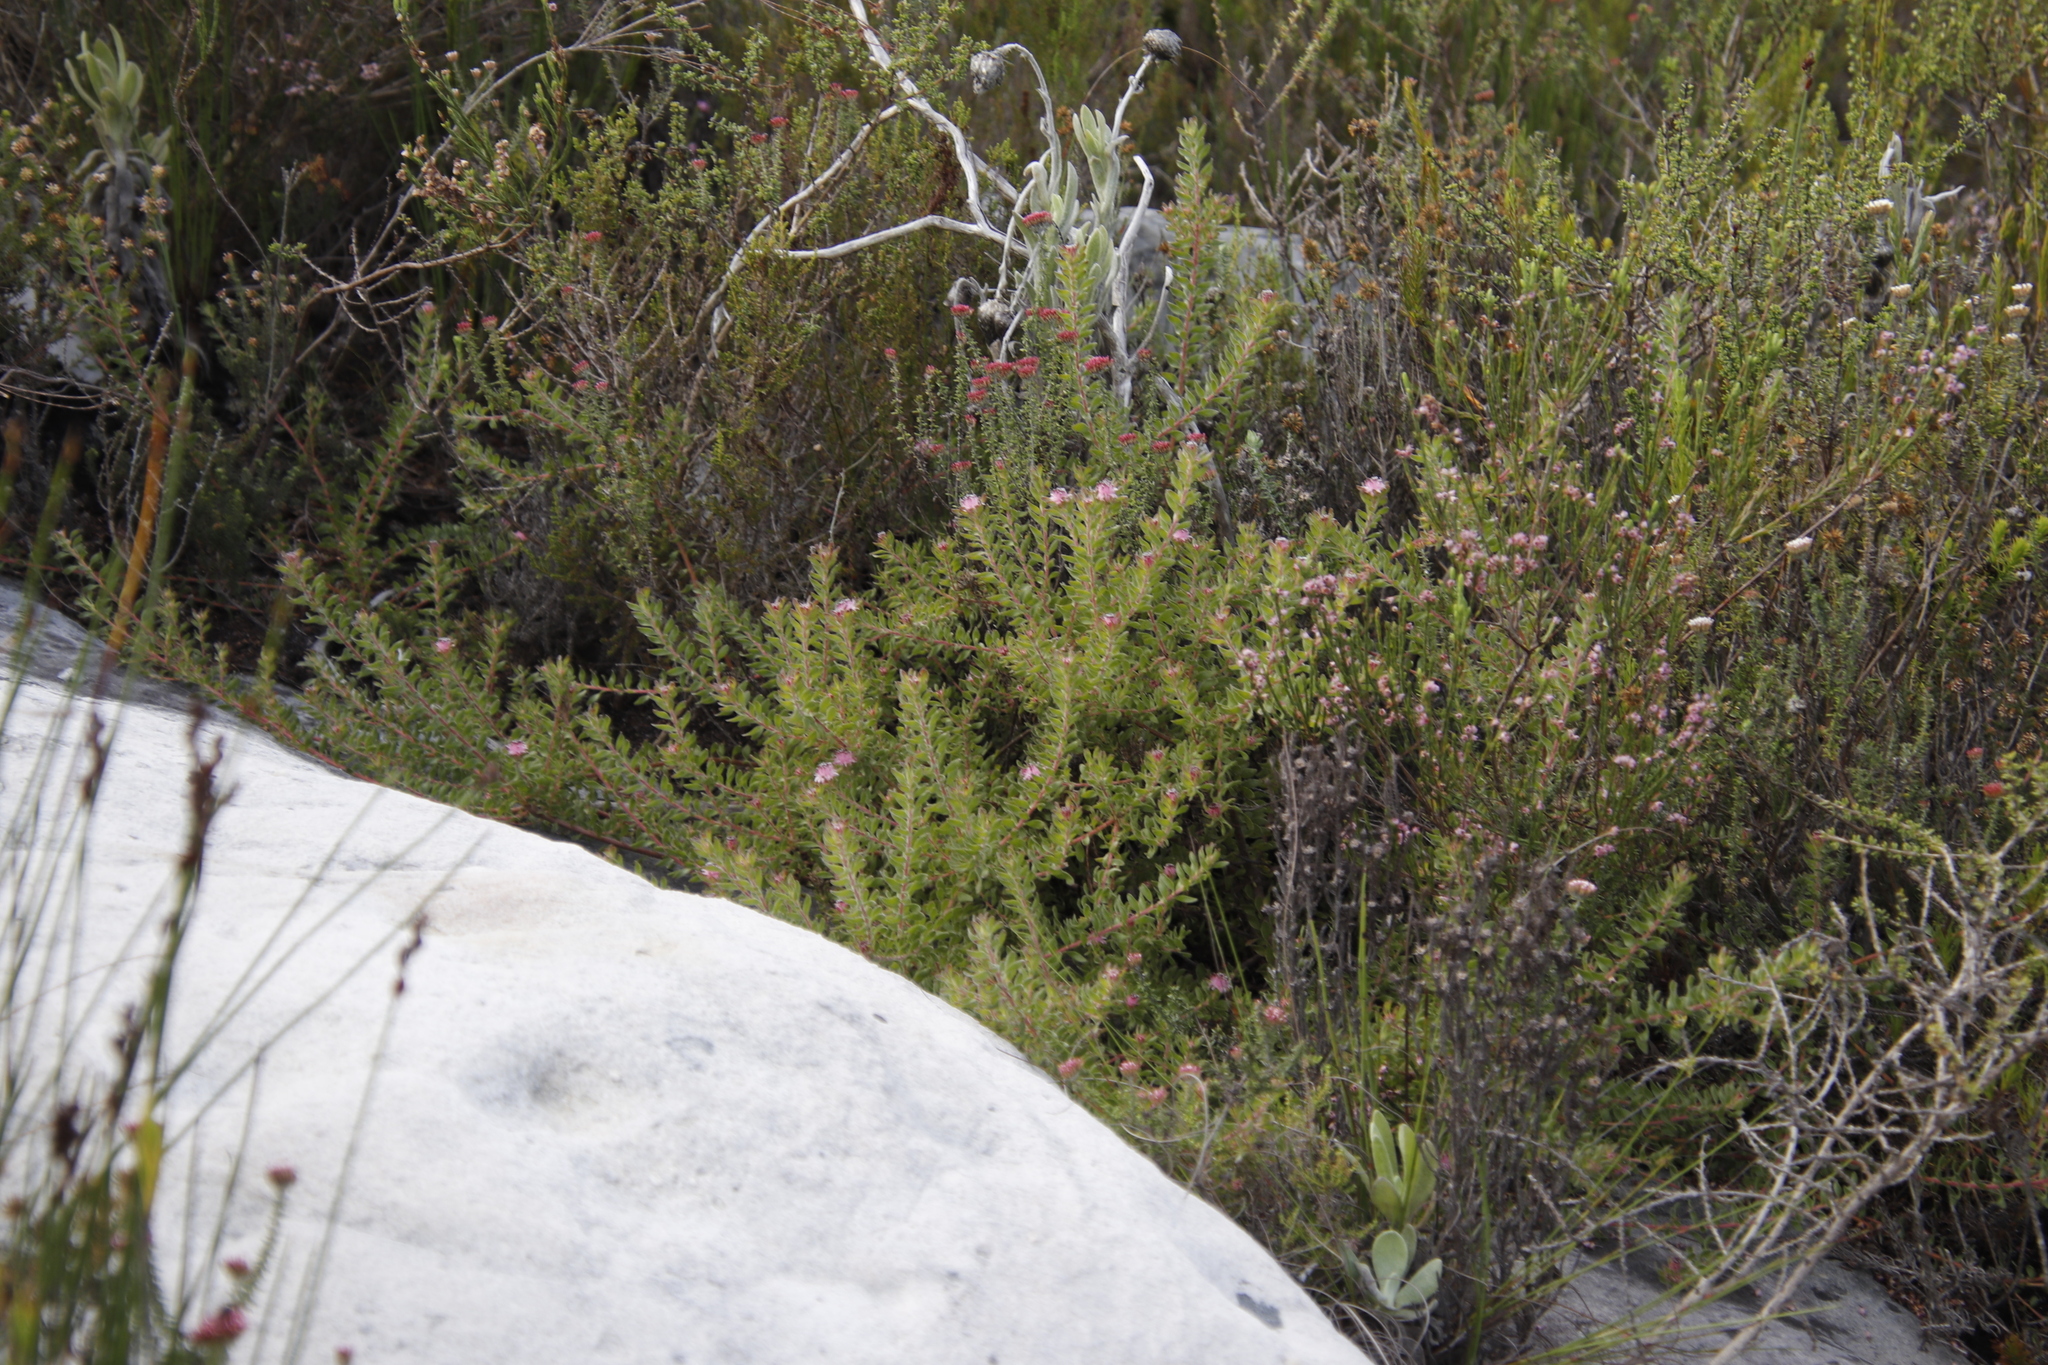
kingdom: Plantae
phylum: Tracheophyta
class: Magnoliopsida
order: Proteales
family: Proteaceae
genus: Diastella
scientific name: Diastella divaricata
